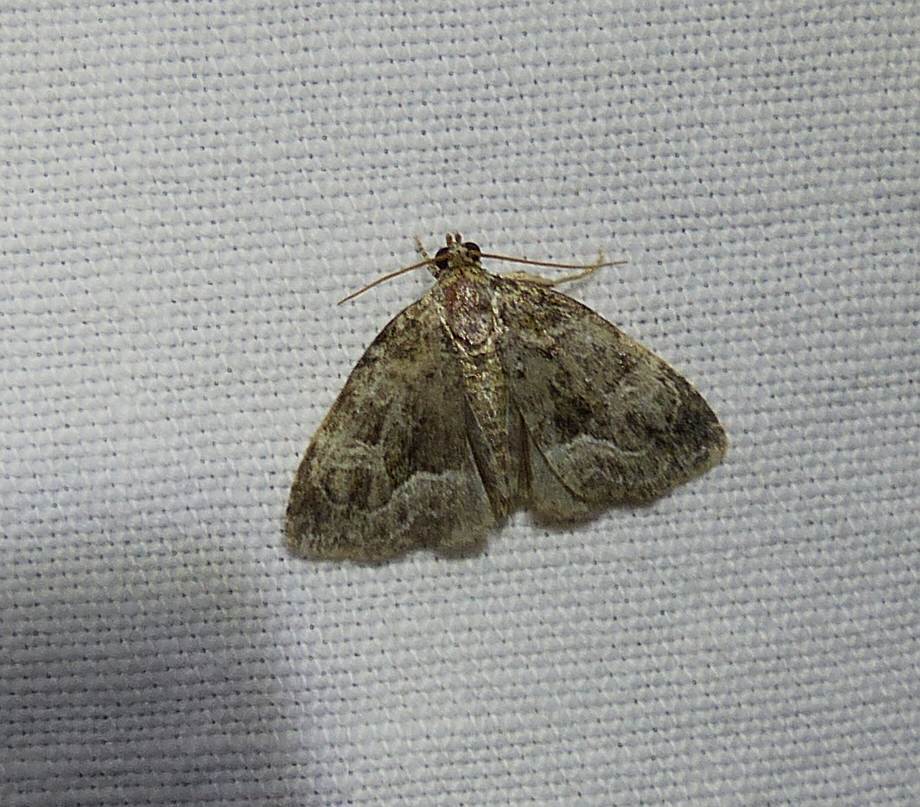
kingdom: Animalia
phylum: Arthropoda
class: Insecta
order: Lepidoptera
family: Noctuidae
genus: Protodeltote
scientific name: Protodeltote muscosula
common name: Large mossy glyph
